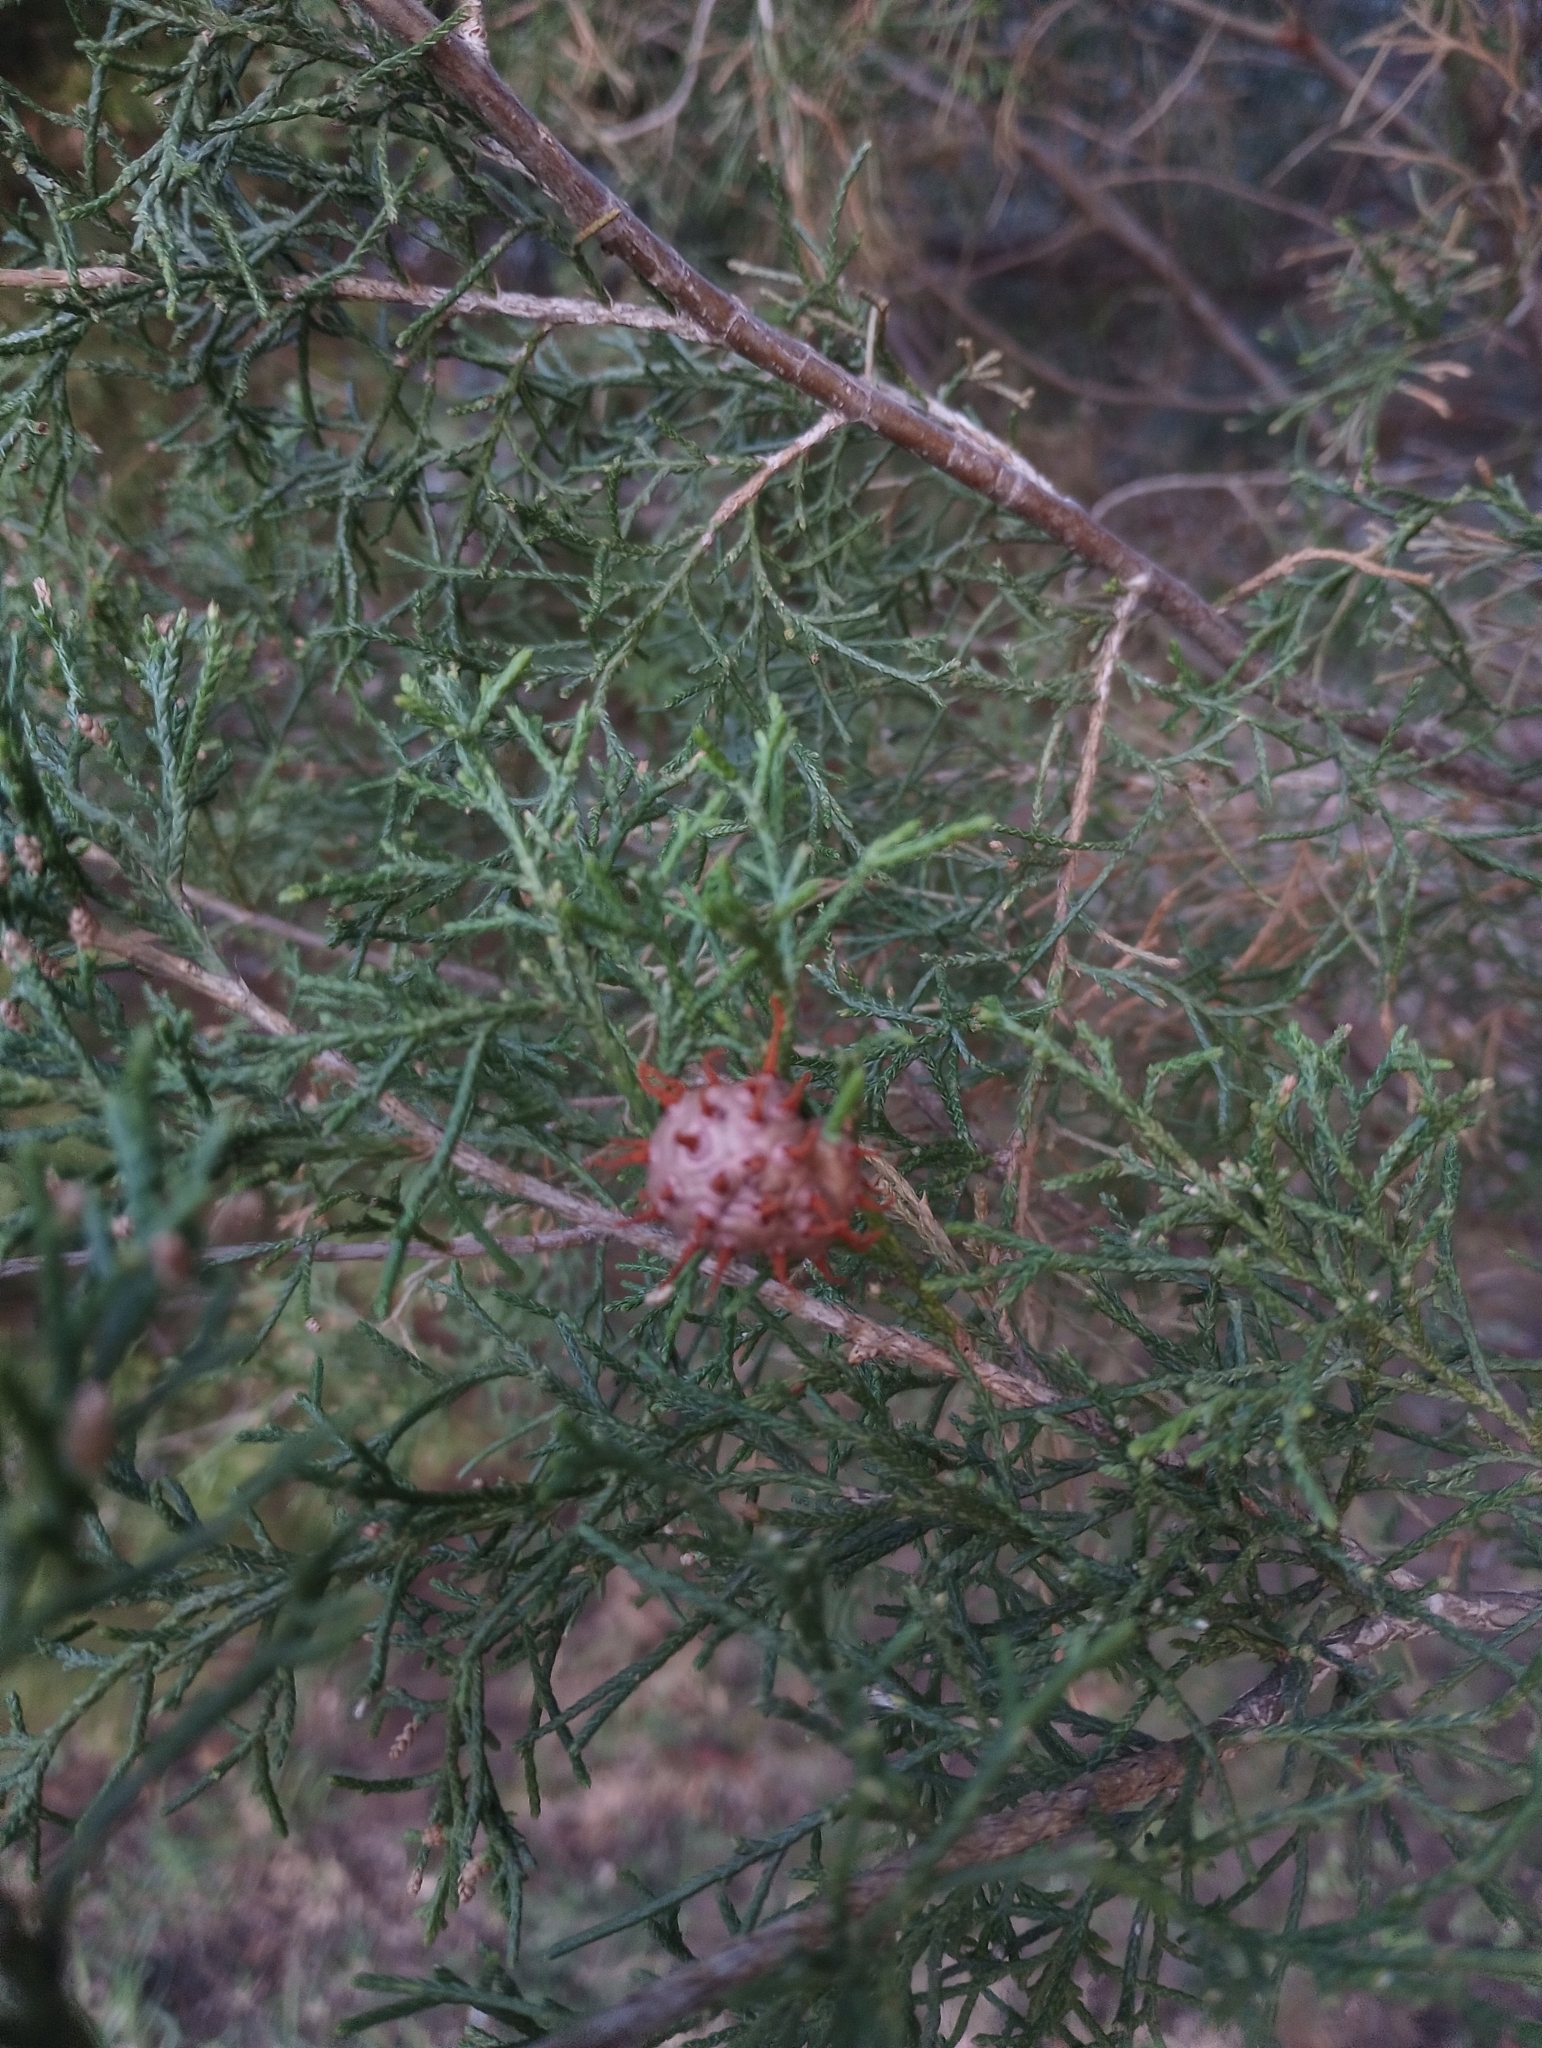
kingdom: Fungi
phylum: Basidiomycota
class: Pucciniomycetes
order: Pucciniales
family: Gymnosporangiaceae
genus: Gymnosporangium
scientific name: Gymnosporangium juniperi-virginianae
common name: Juniper-apple rust
